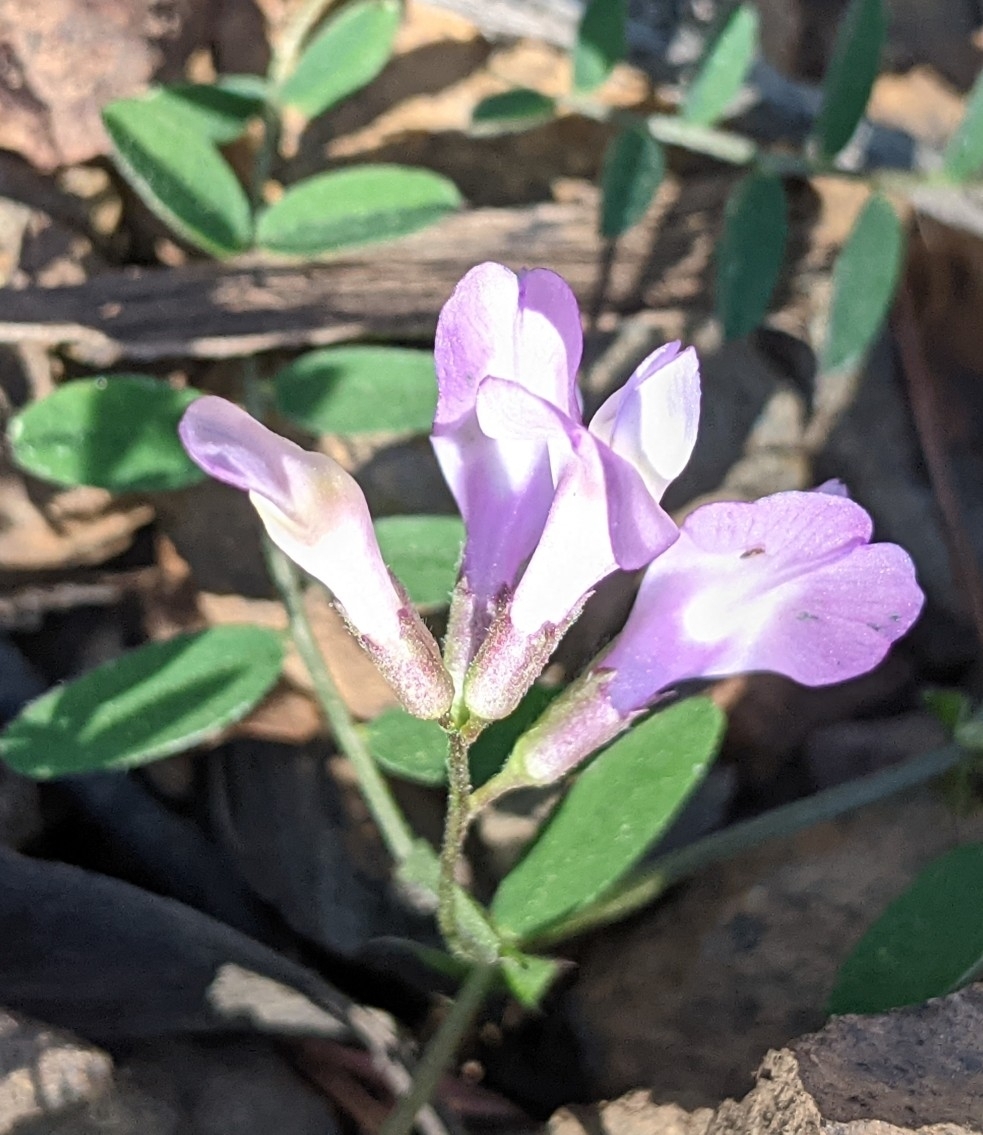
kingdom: Plantae
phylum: Tracheophyta
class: Magnoliopsida
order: Fabales
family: Fabaceae
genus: Vicia
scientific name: Vicia americana
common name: American vetch
